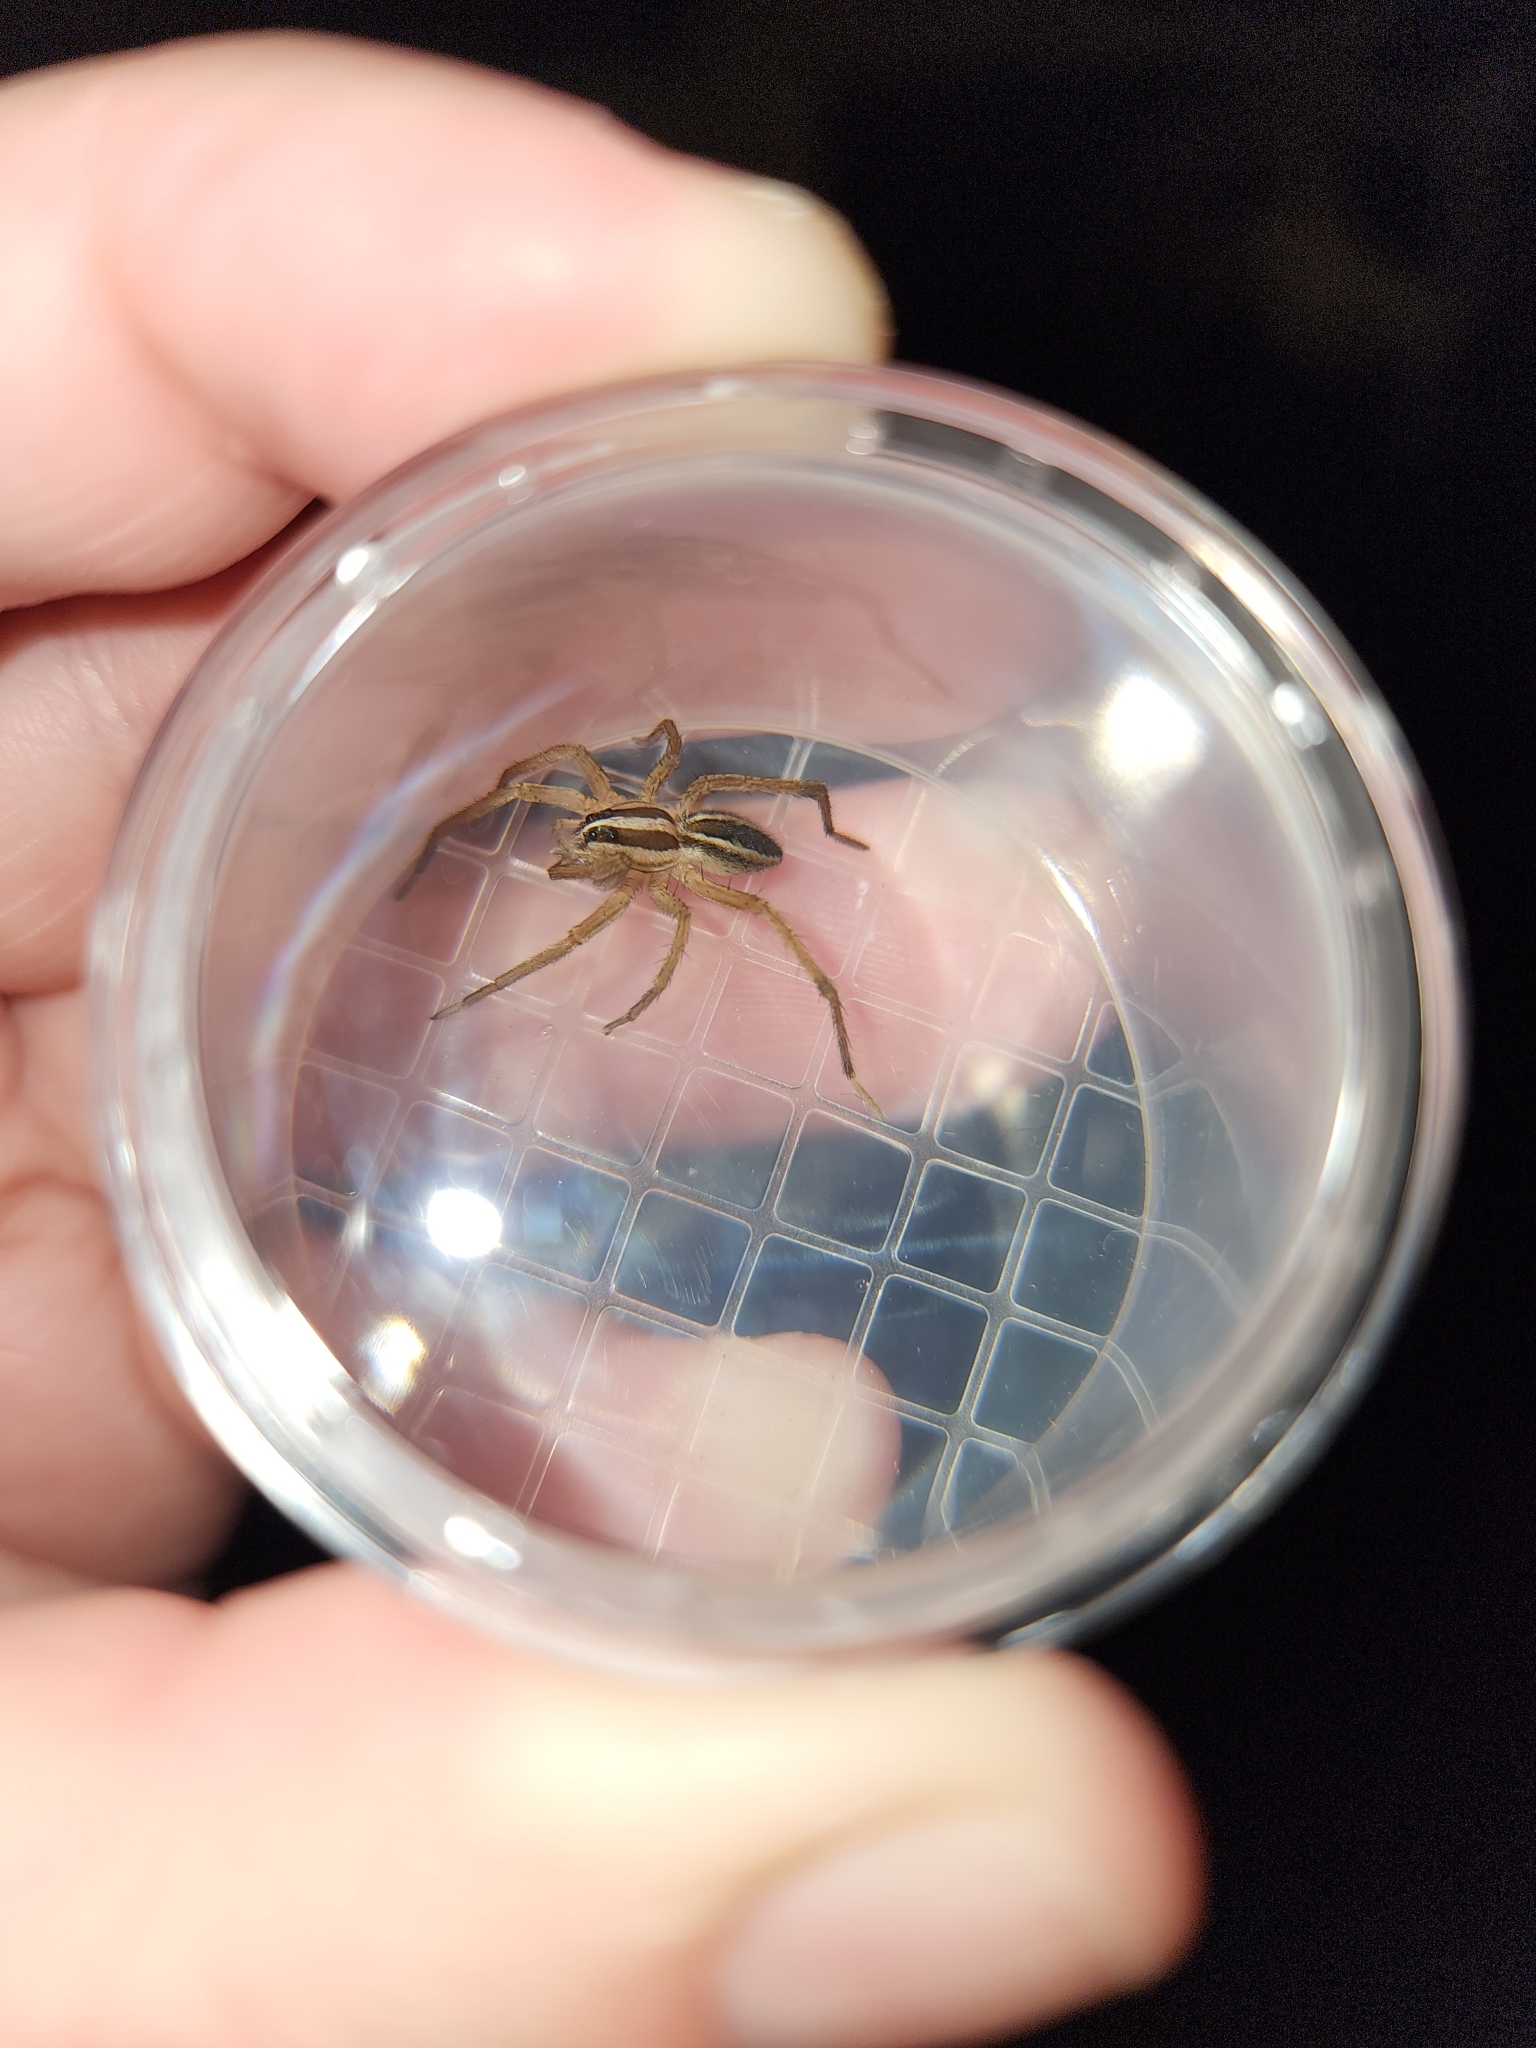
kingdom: Animalia
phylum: Arthropoda
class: Arachnida
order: Araneae
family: Lycosidae
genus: Rabidosa
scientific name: Rabidosa rabida
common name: Rabid wolf spider
